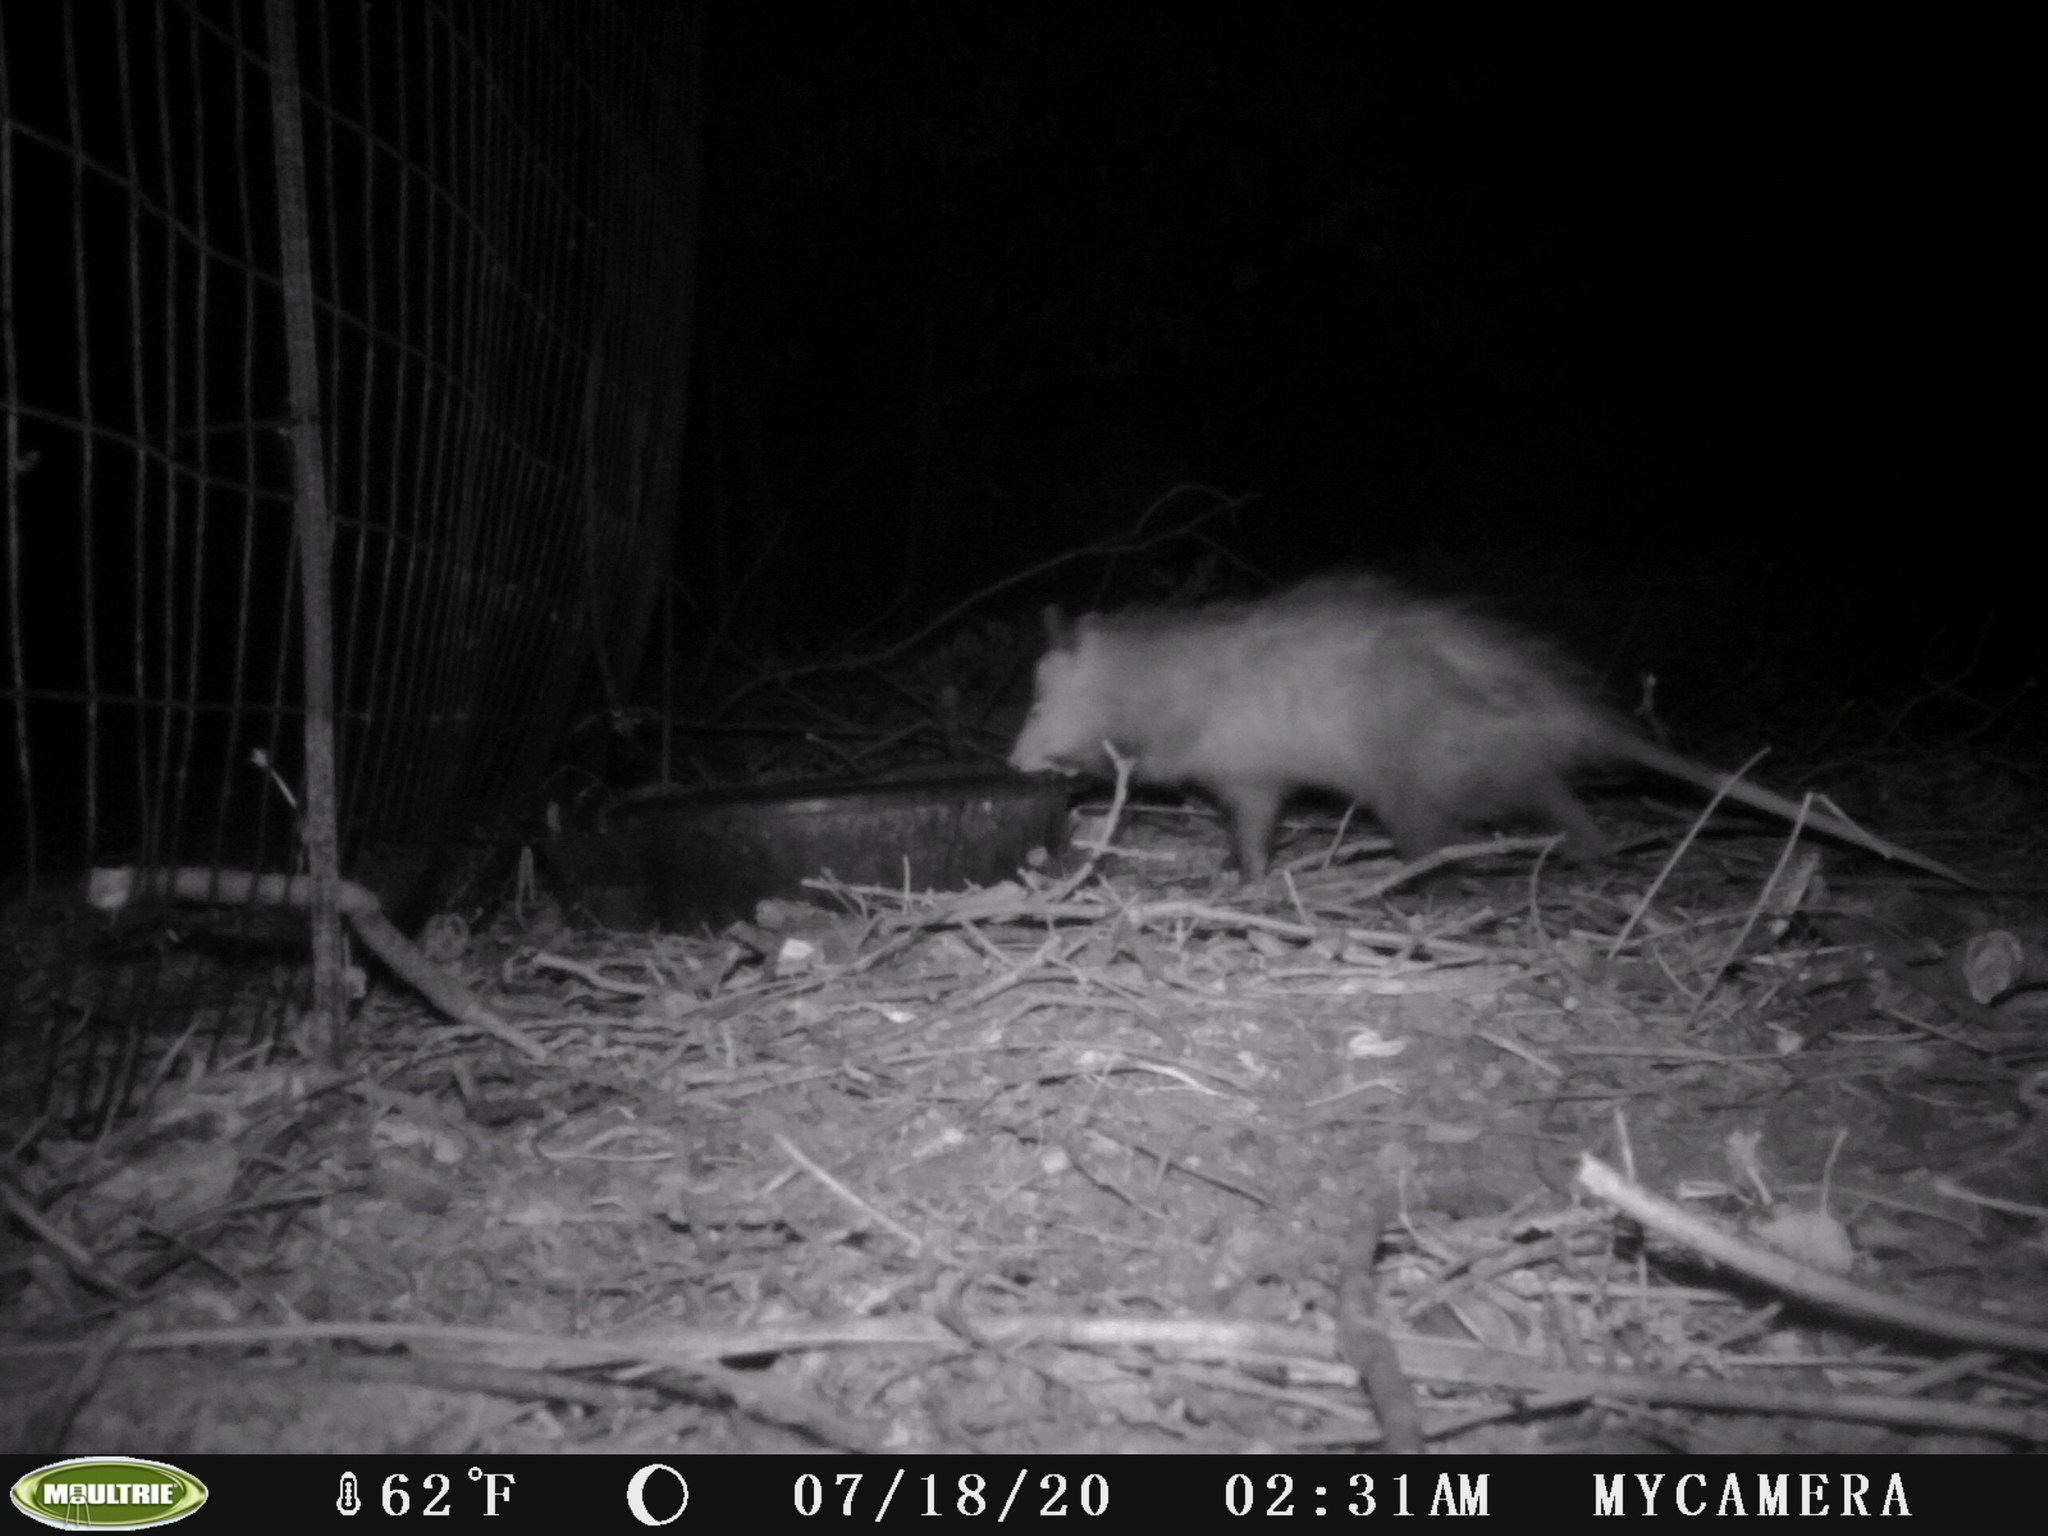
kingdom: Animalia
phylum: Chordata
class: Mammalia
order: Didelphimorphia
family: Didelphidae
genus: Didelphis
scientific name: Didelphis virginiana
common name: Virginia opossum
